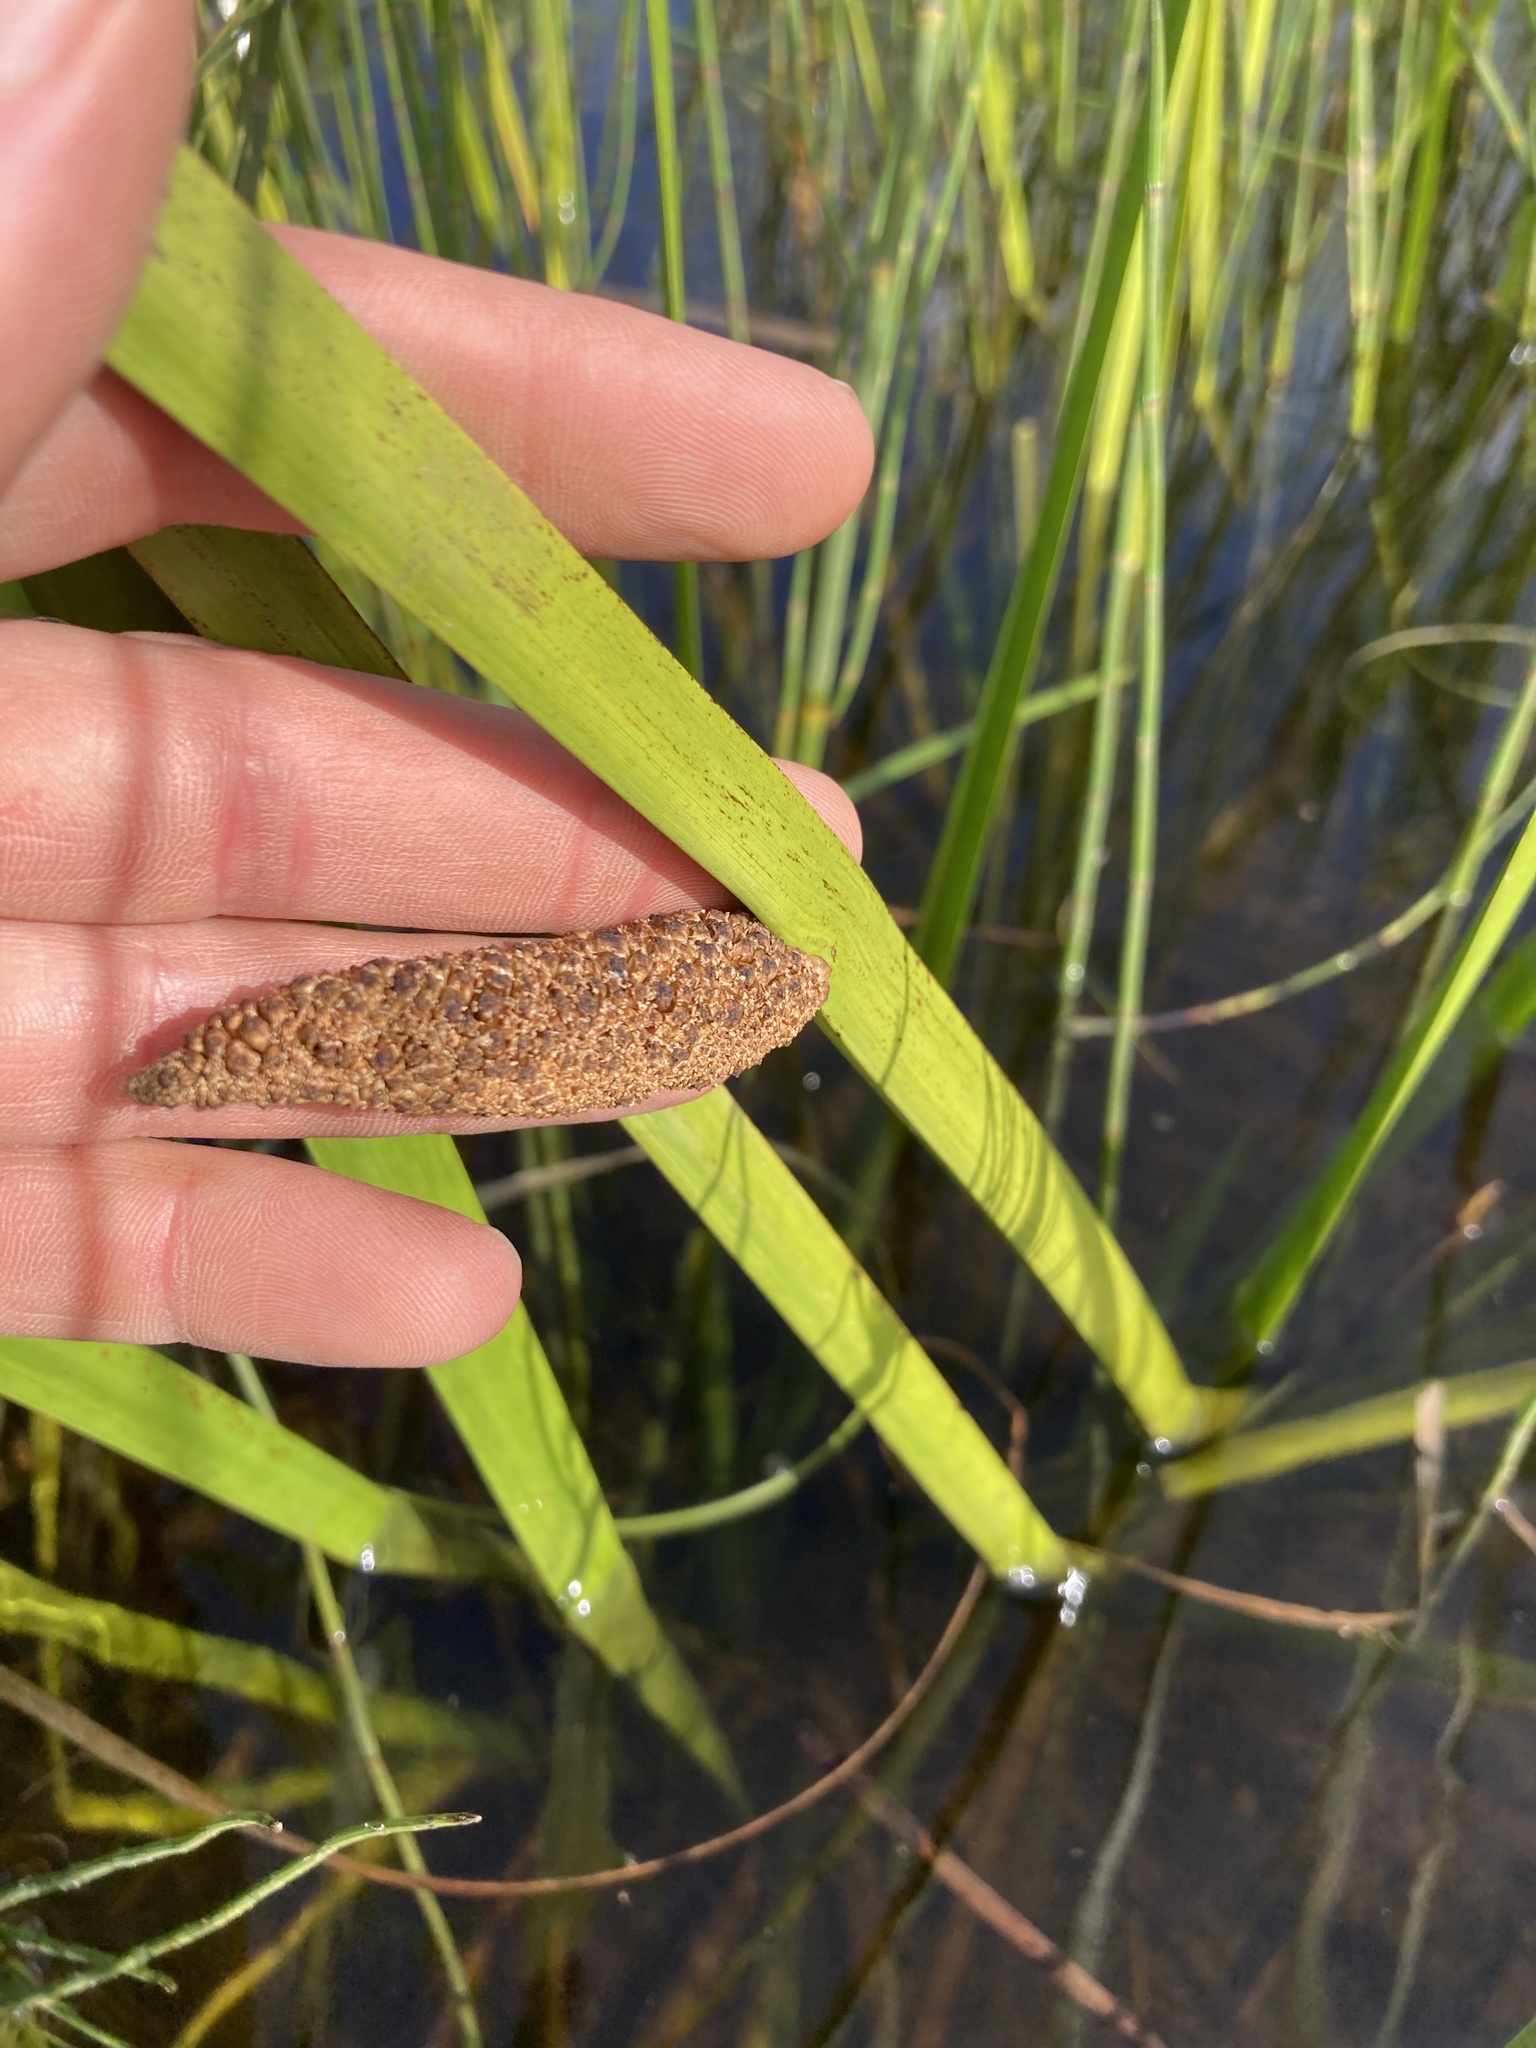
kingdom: Plantae
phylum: Tracheophyta
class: Liliopsida
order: Acorales
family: Acoraceae
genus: Acorus
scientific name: Acorus calamus
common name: Sweet-flag
